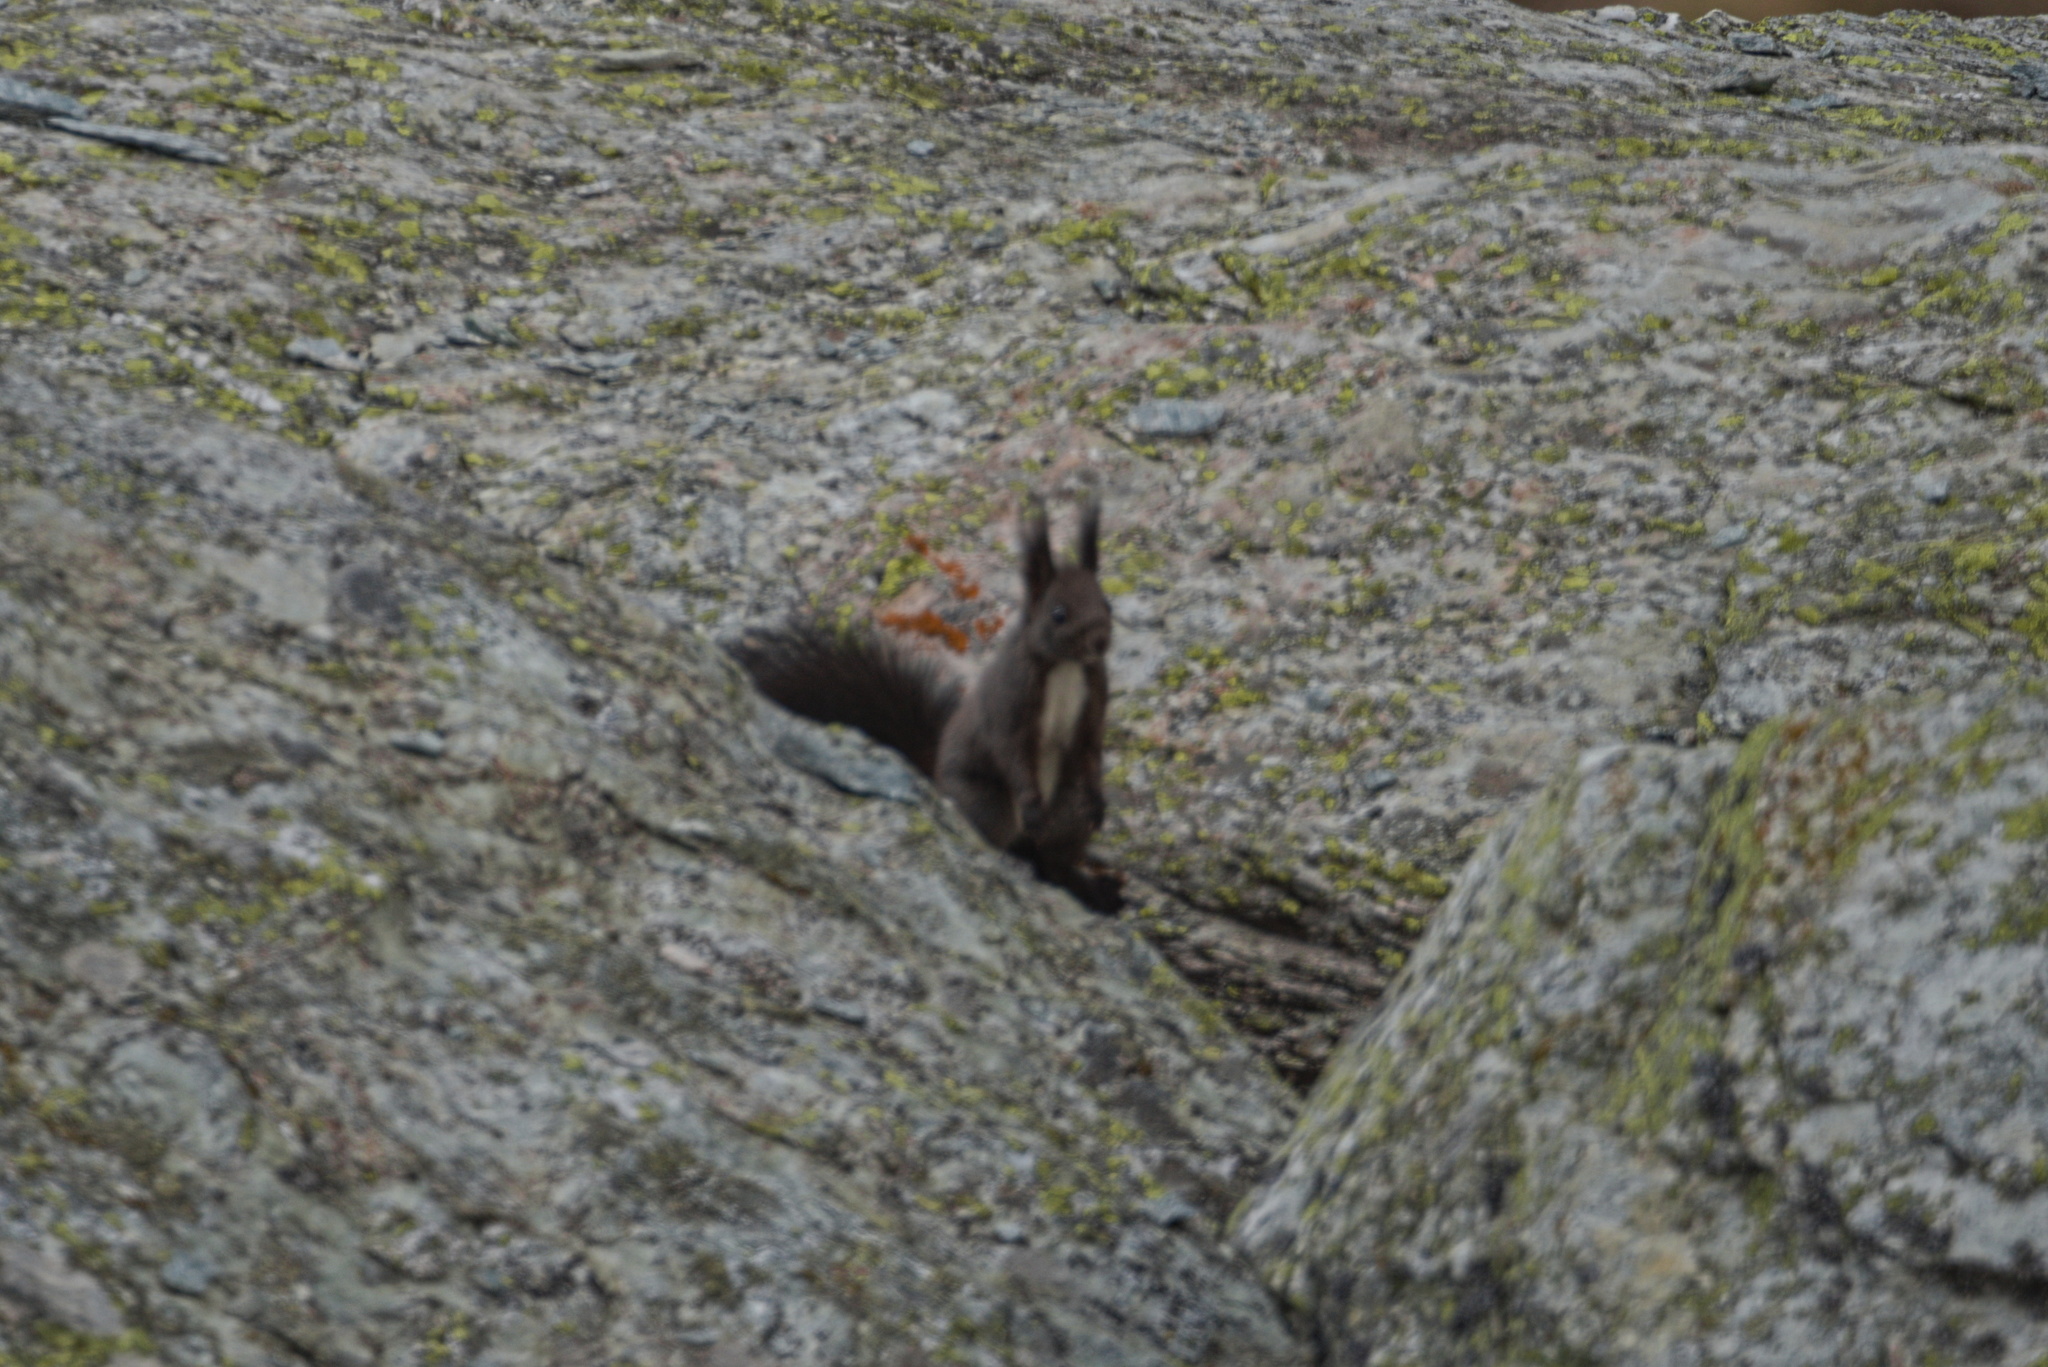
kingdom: Animalia
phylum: Chordata
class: Mammalia
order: Rodentia
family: Sciuridae
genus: Sciurus
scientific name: Sciurus vulgaris
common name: Eurasian red squirrel
